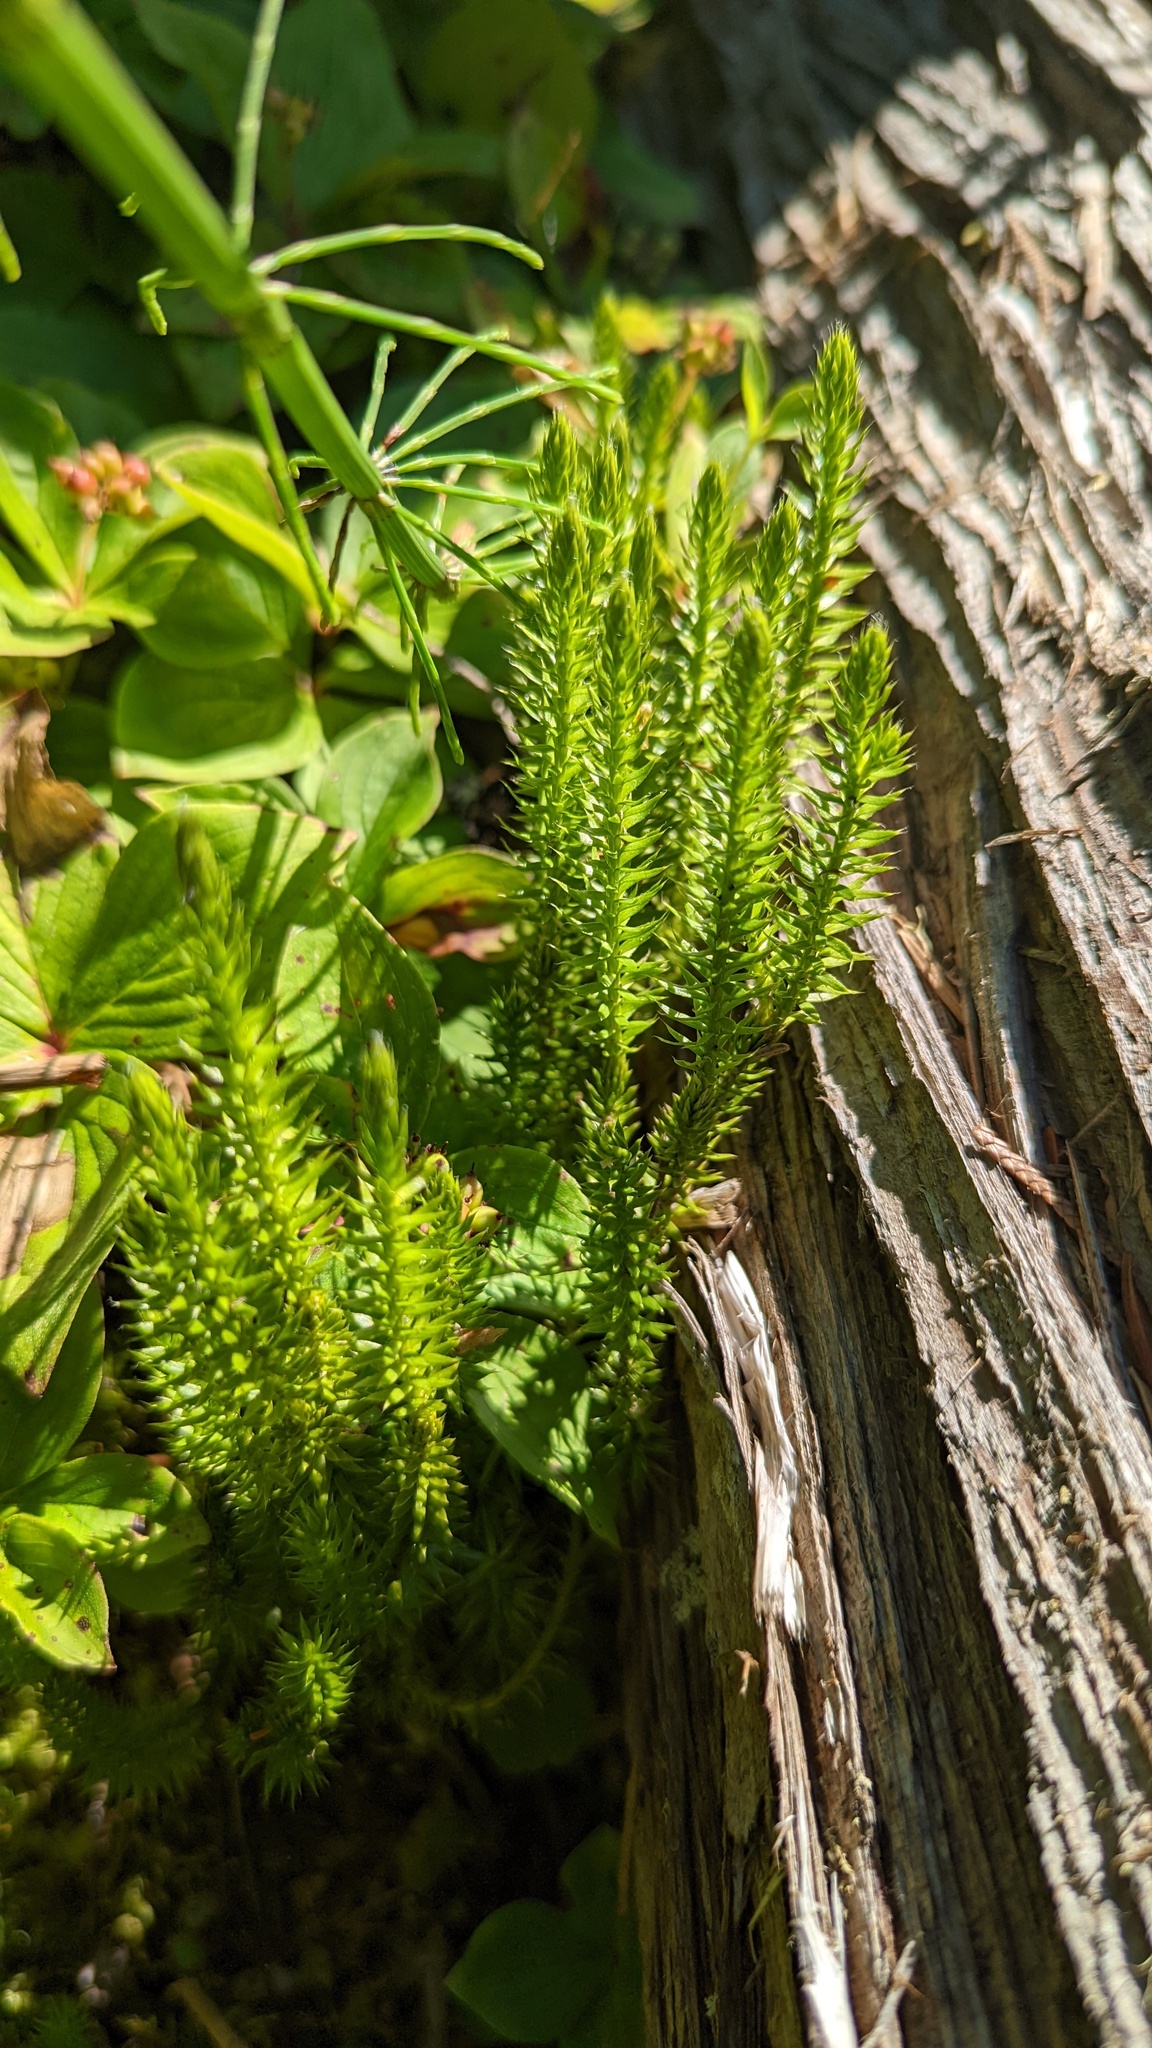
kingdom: Plantae
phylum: Tracheophyta
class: Lycopodiopsida
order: Lycopodiales
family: Lycopodiaceae
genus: Spinulum
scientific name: Spinulum annotinum
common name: Interrupted club-moss
